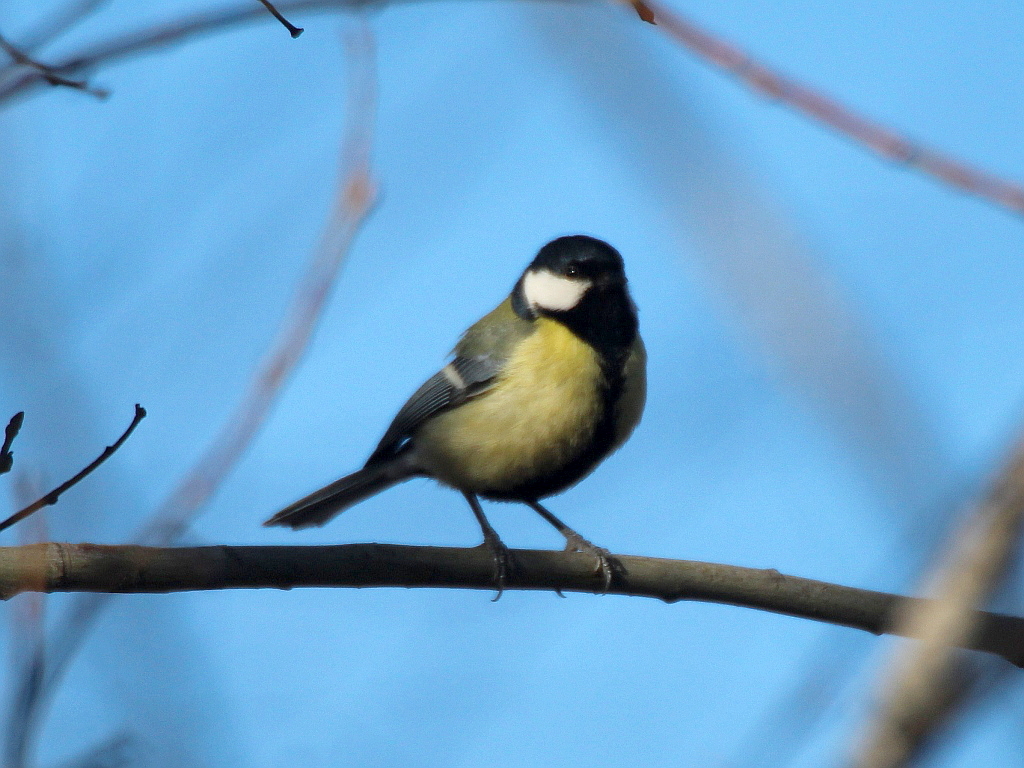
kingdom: Animalia
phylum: Chordata
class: Aves
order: Passeriformes
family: Paridae
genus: Parus
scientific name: Parus major
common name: Great tit
